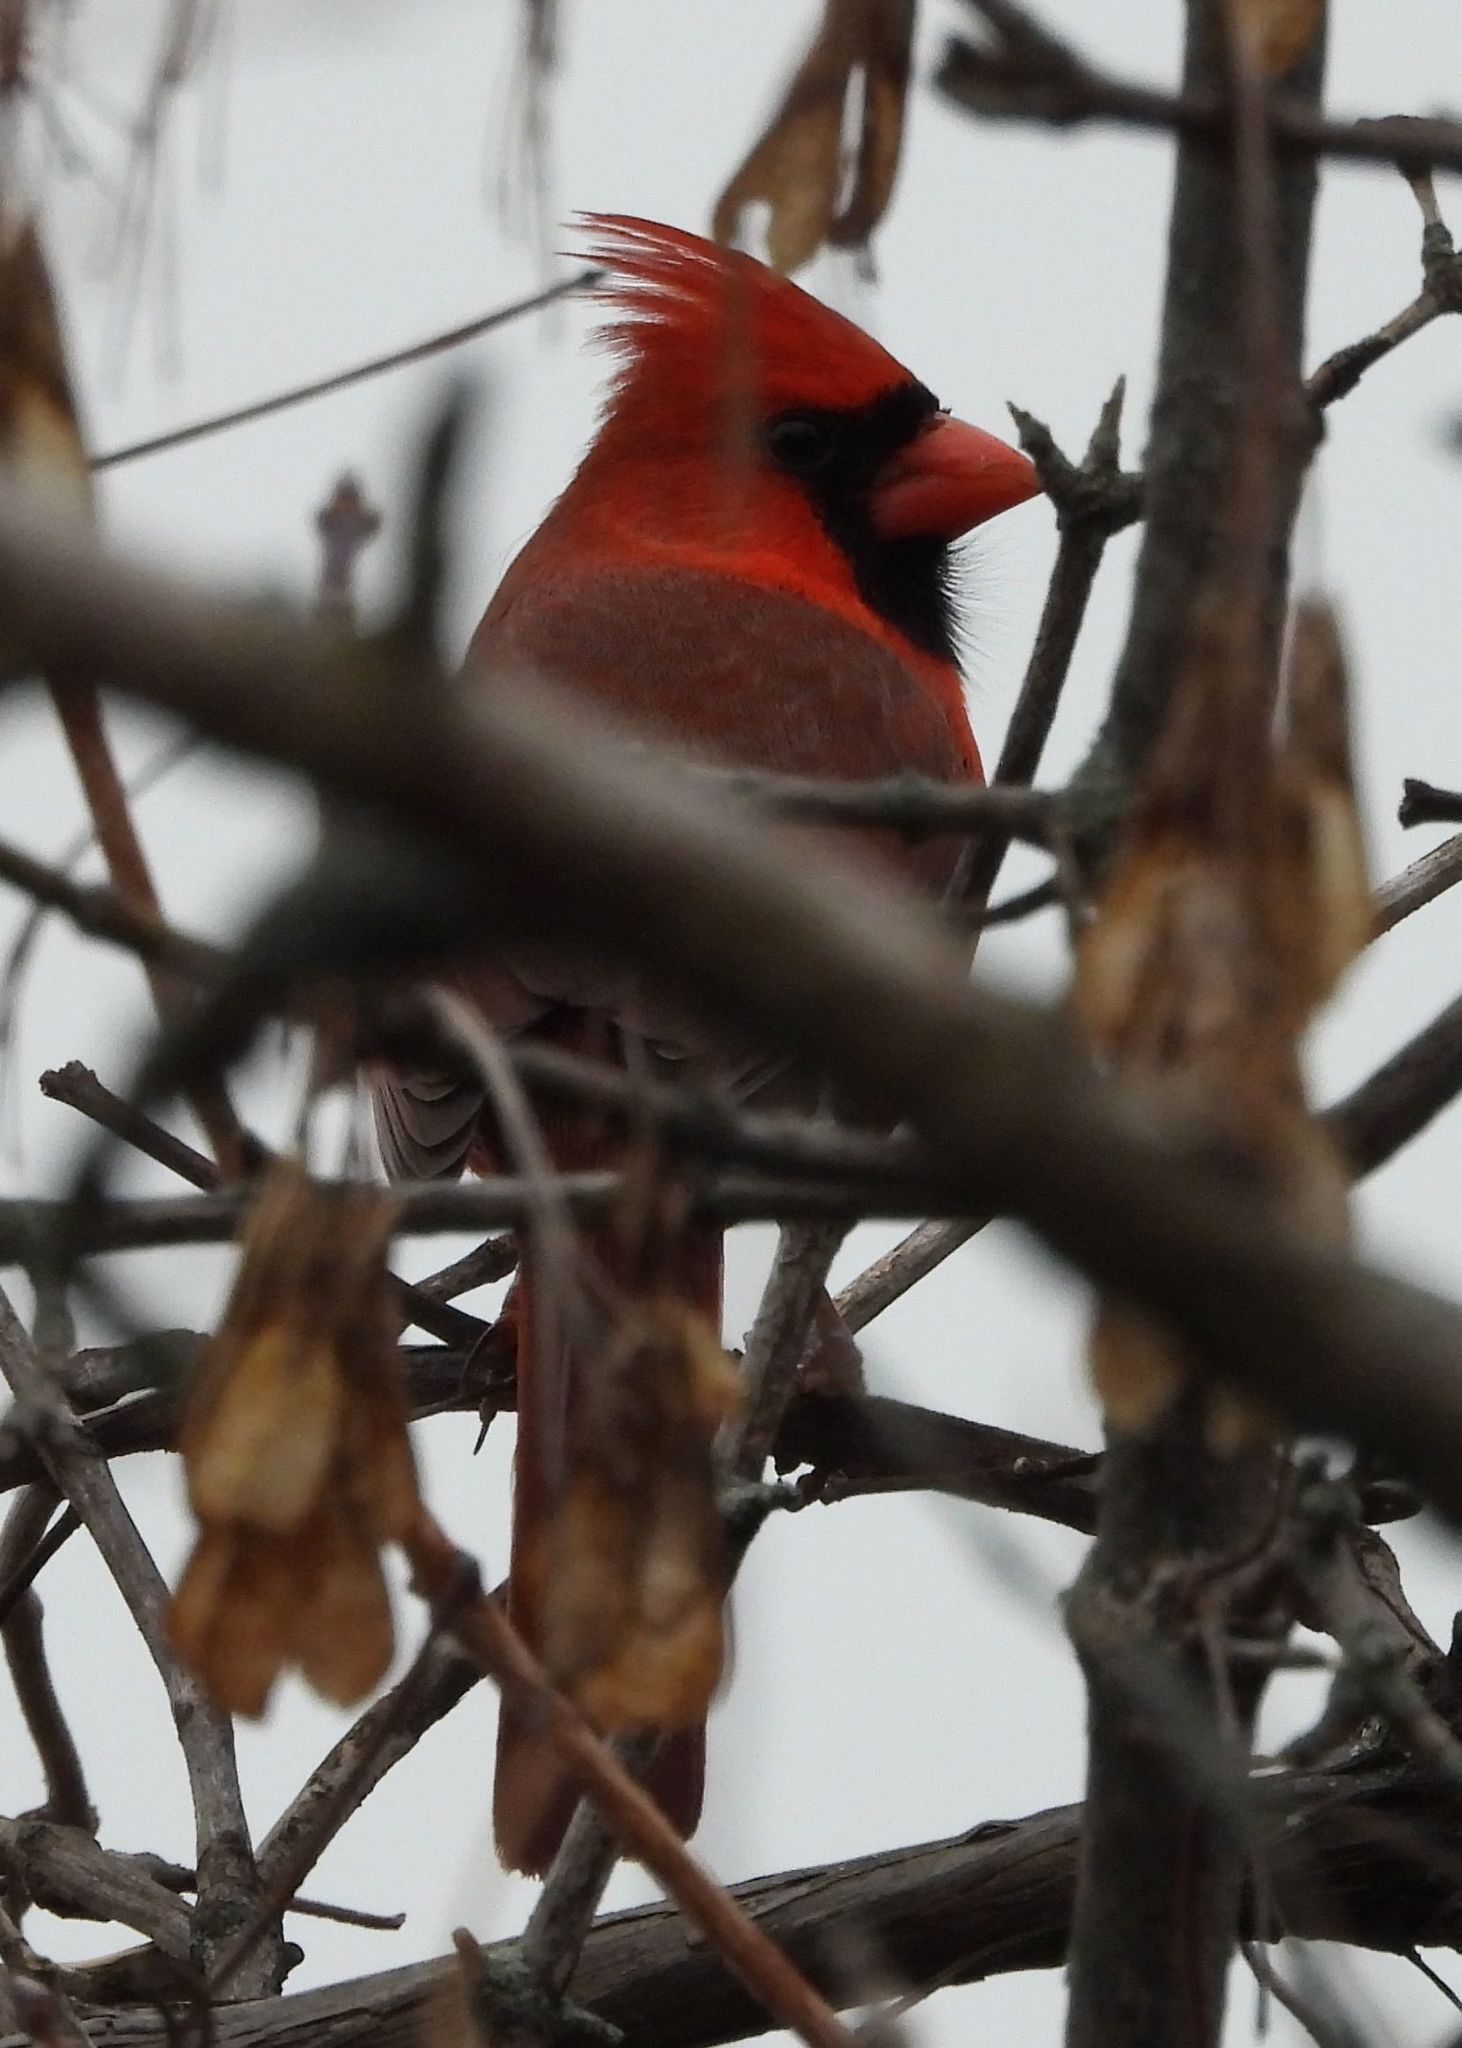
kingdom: Animalia
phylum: Chordata
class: Aves
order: Passeriformes
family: Cardinalidae
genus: Cardinalis
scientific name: Cardinalis cardinalis
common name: Northern cardinal
